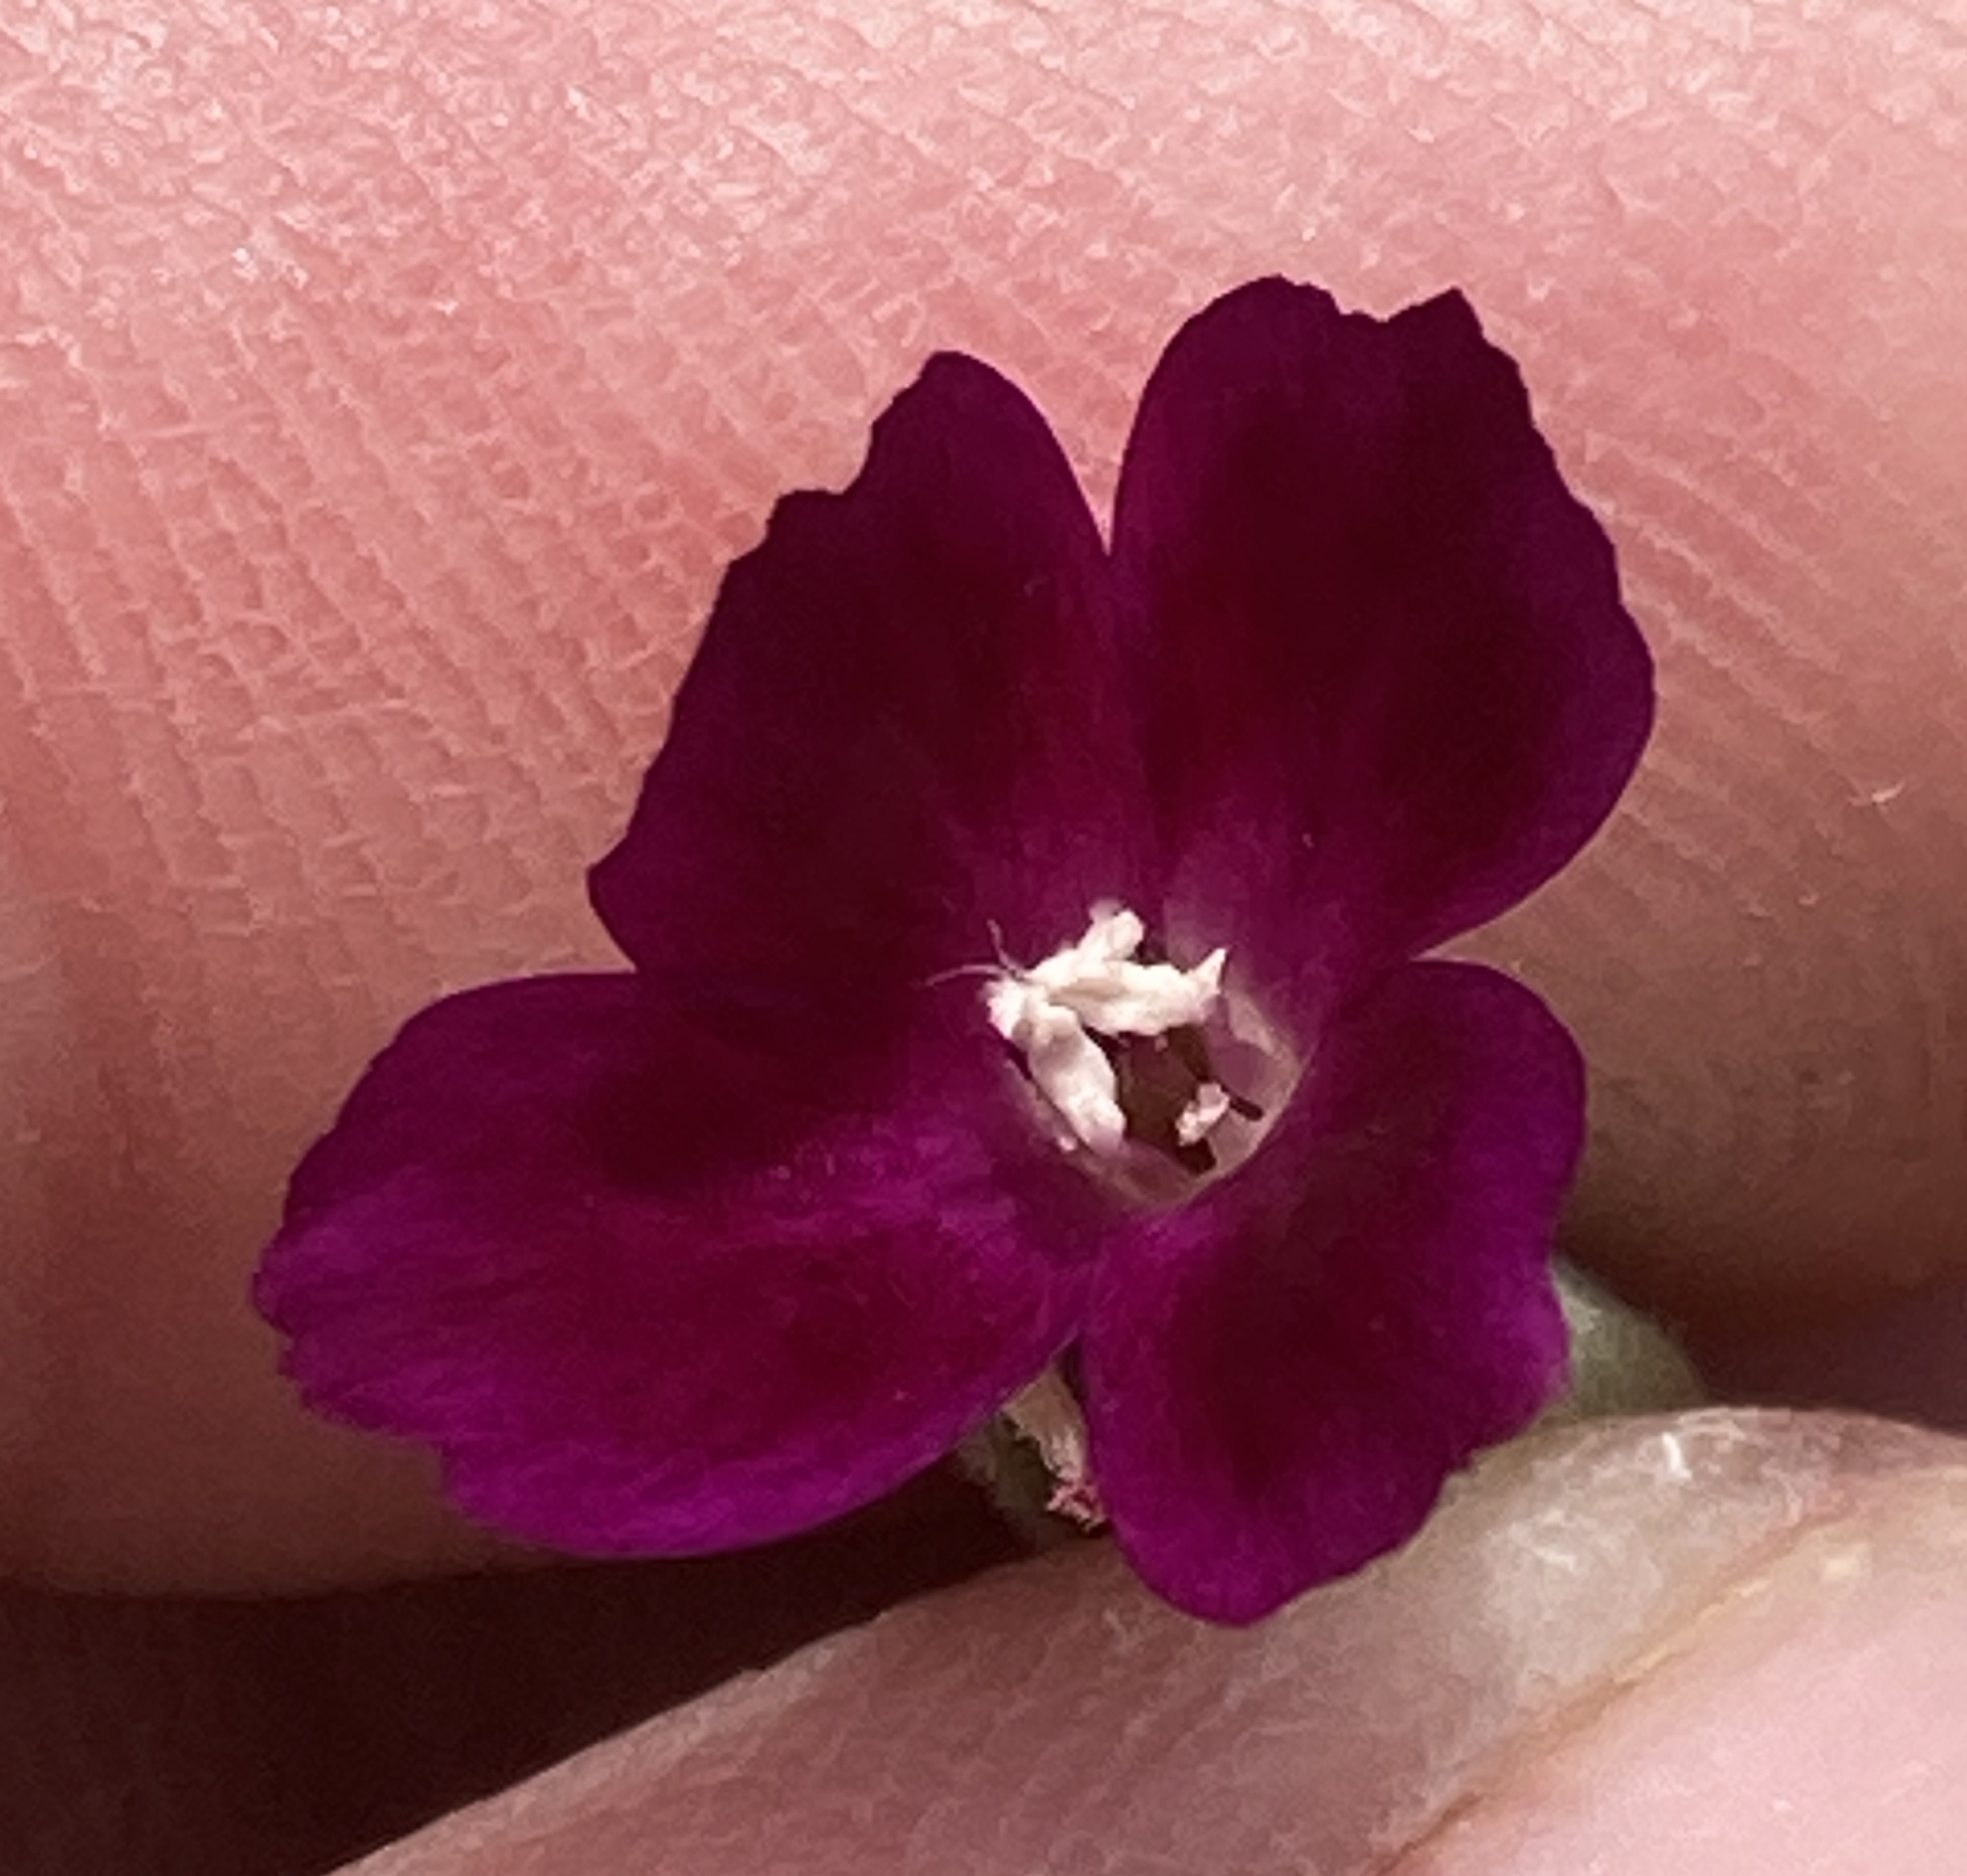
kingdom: Plantae
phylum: Tracheophyta
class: Magnoliopsida
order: Myrtales
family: Onagraceae
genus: Clarkia
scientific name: Clarkia purpurea
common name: Purple clarkia
